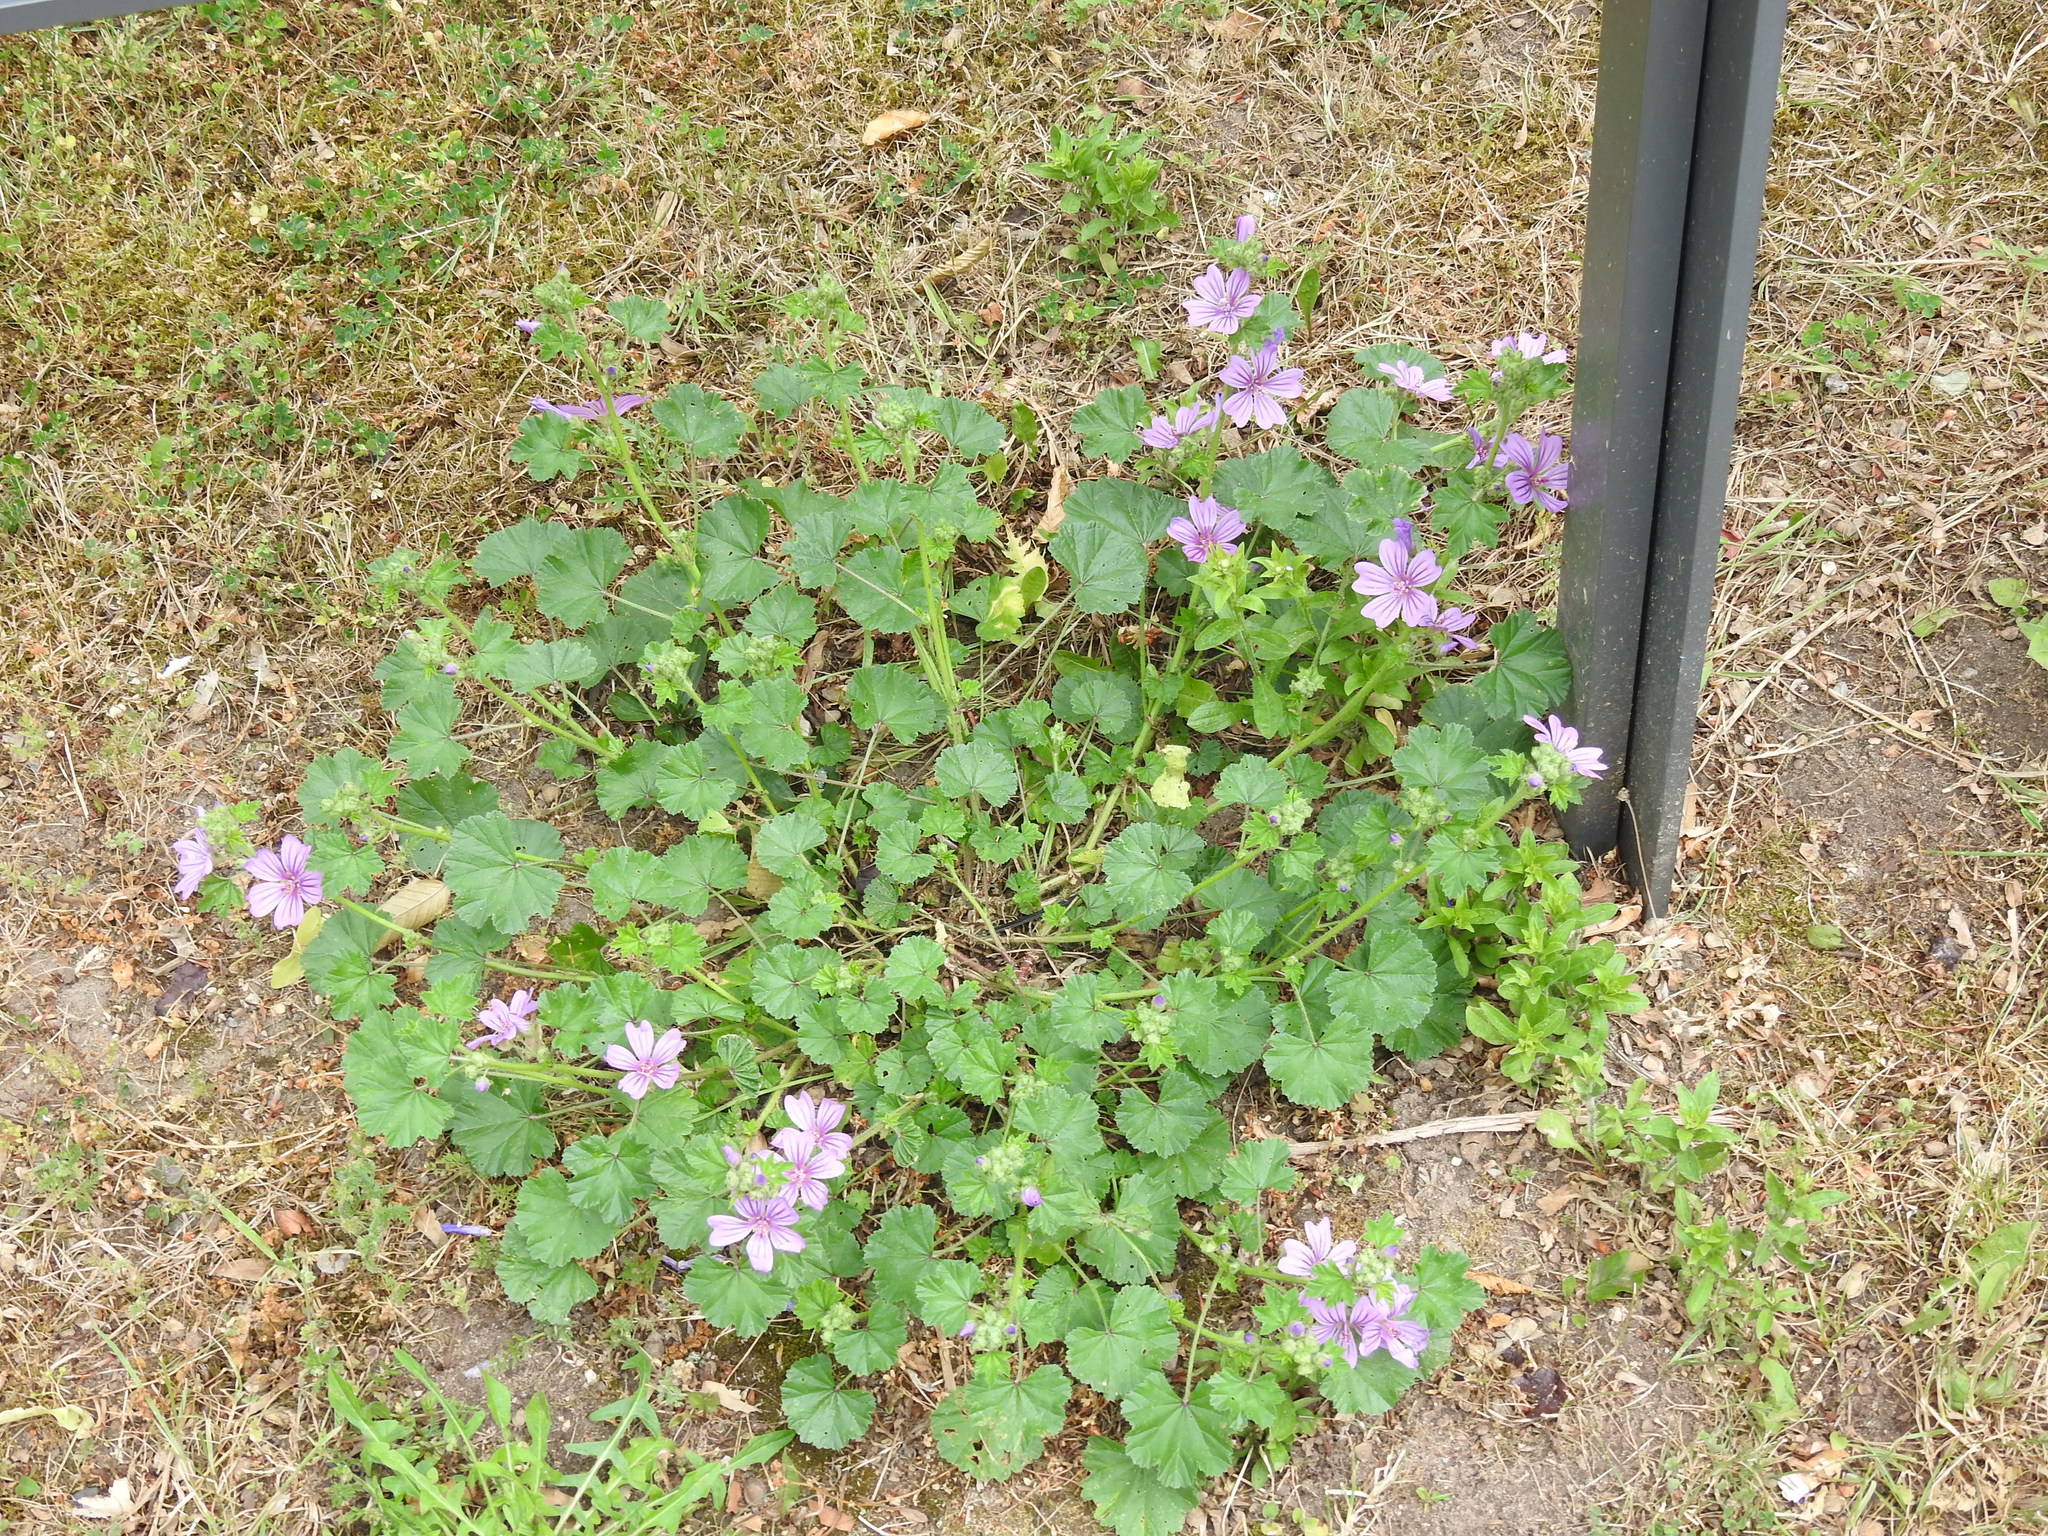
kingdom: Plantae
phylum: Tracheophyta
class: Magnoliopsida
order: Malvales
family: Malvaceae
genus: Malva
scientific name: Malva sylvestris
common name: Common mallow
